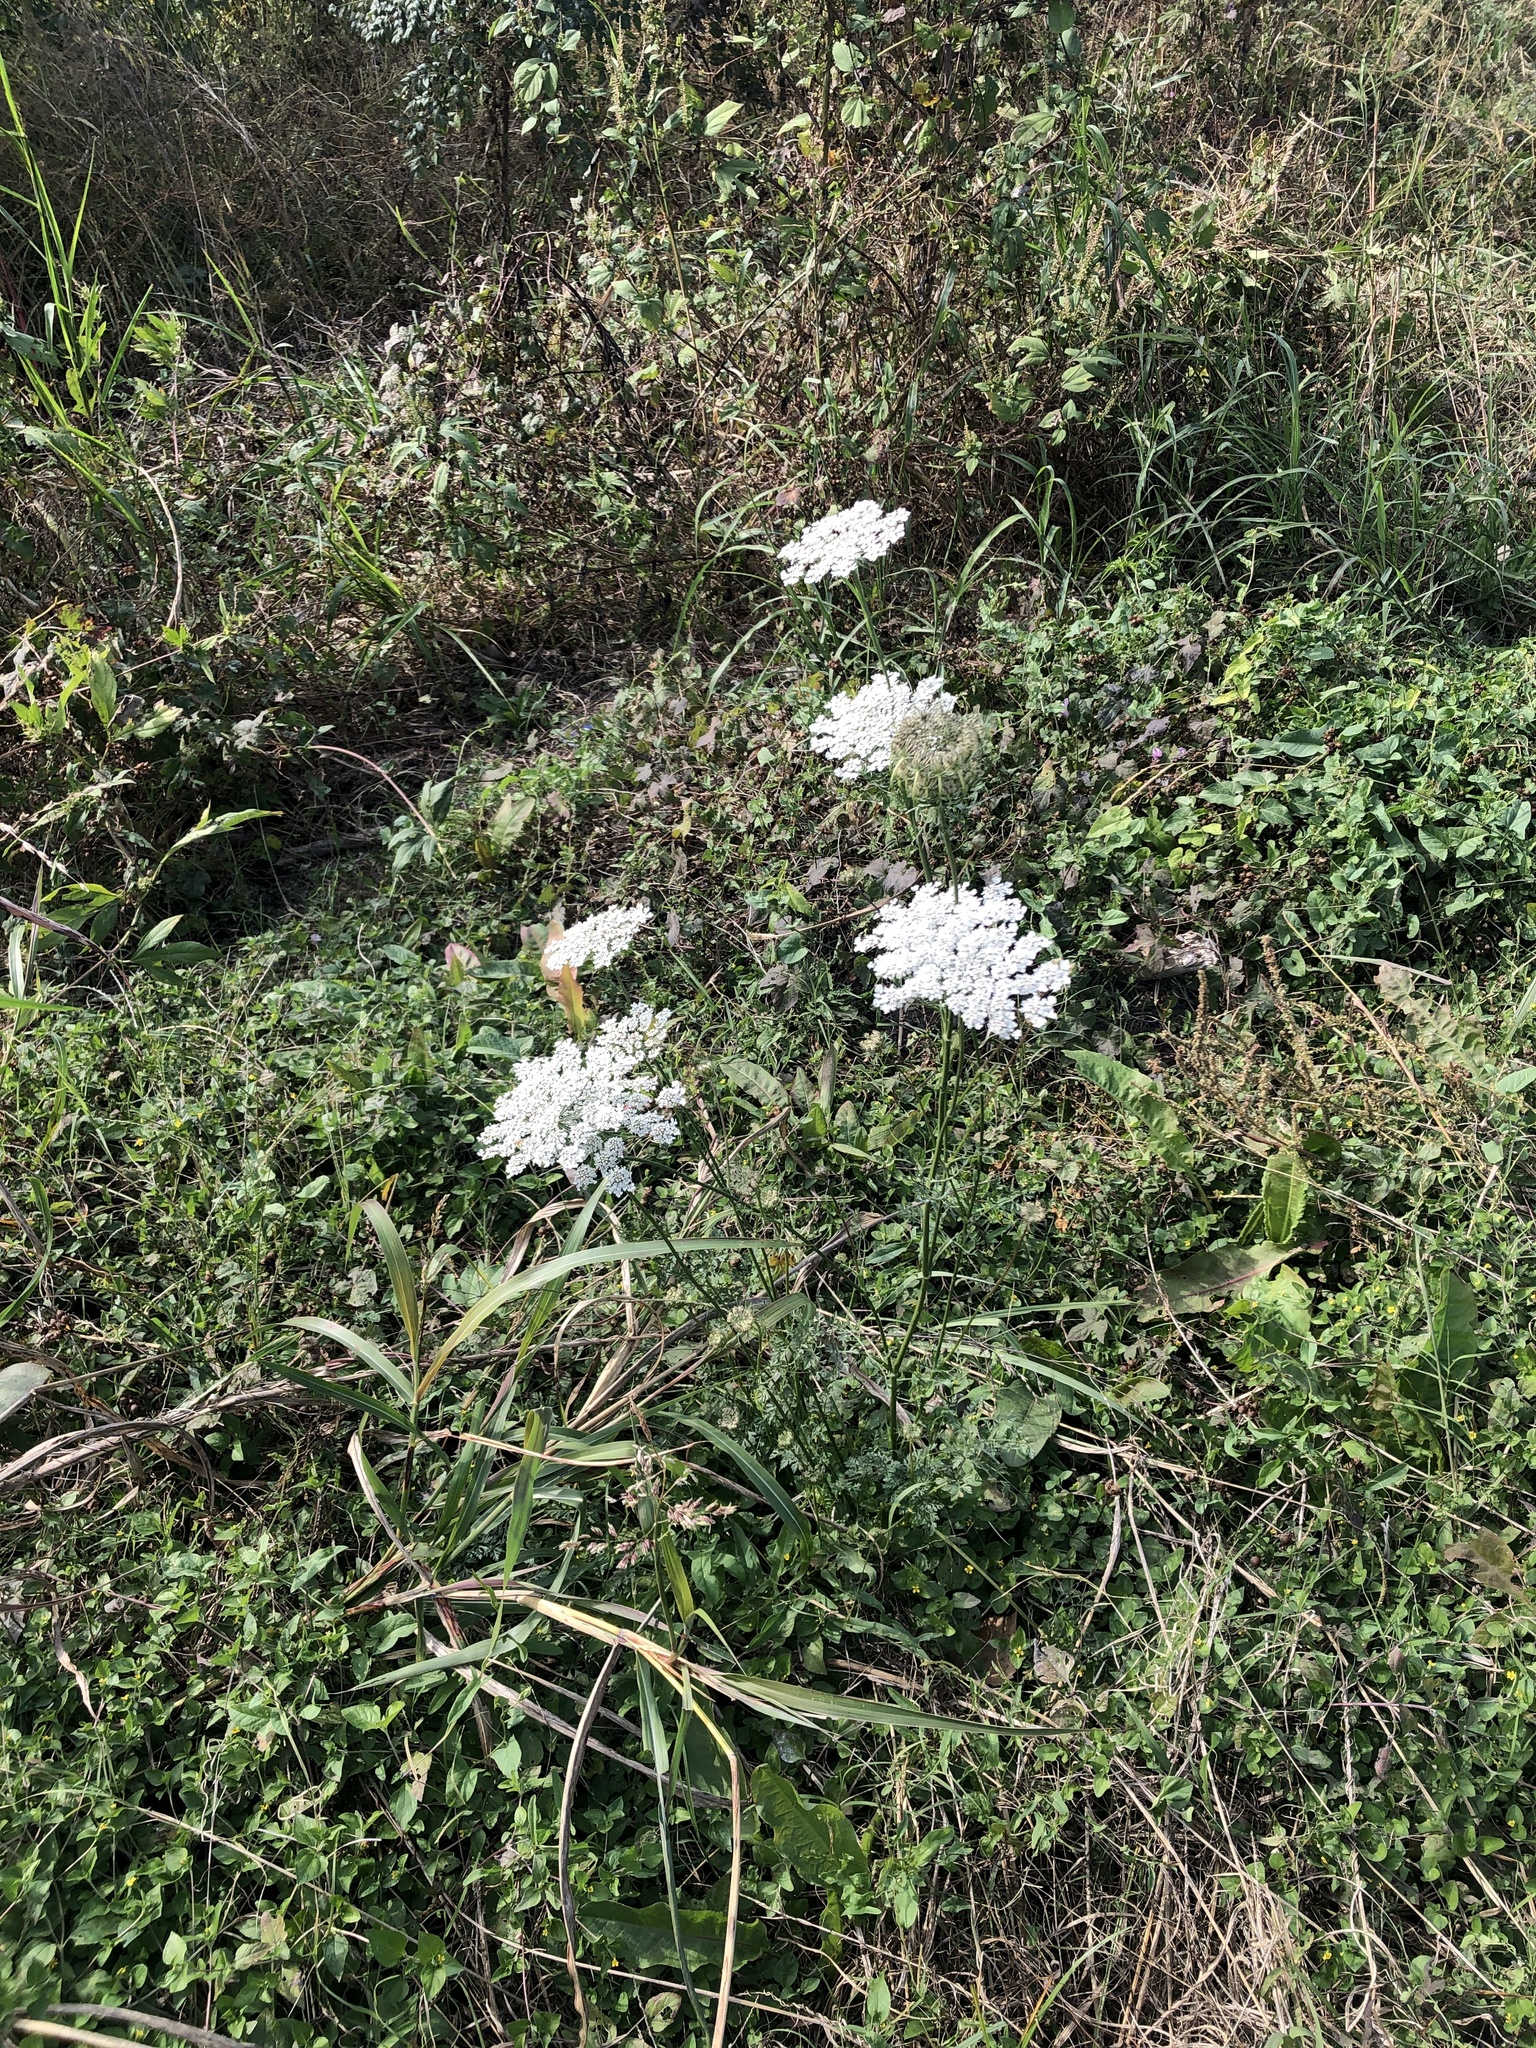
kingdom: Plantae
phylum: Tracheophyta
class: Magnoliopsida
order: Apiales
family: Apiaceae
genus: Daucus
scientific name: Daucus carota
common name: Wild carrot
